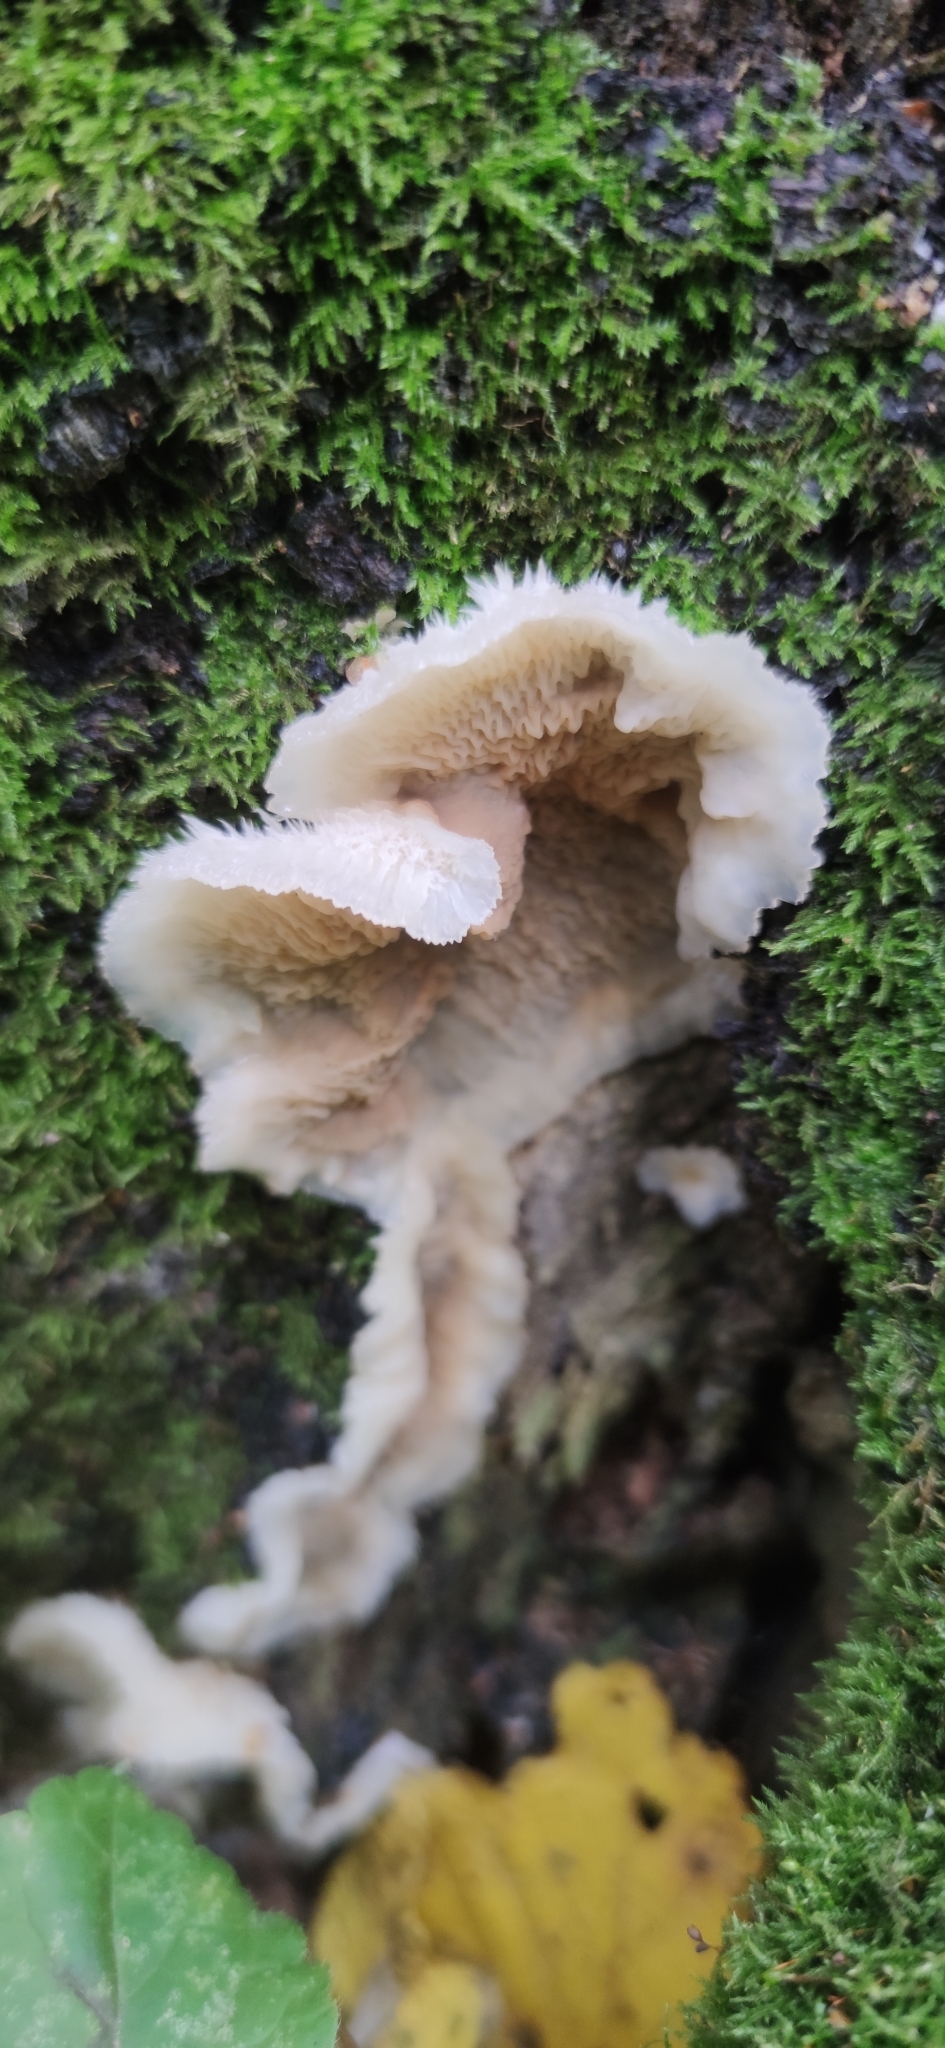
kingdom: Fungi
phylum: Basidiomycota
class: Agaricomycetes
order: Polyporales
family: Meruliaceae
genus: Phlebia
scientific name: Phlebia tremellosa
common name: Jelly rot
